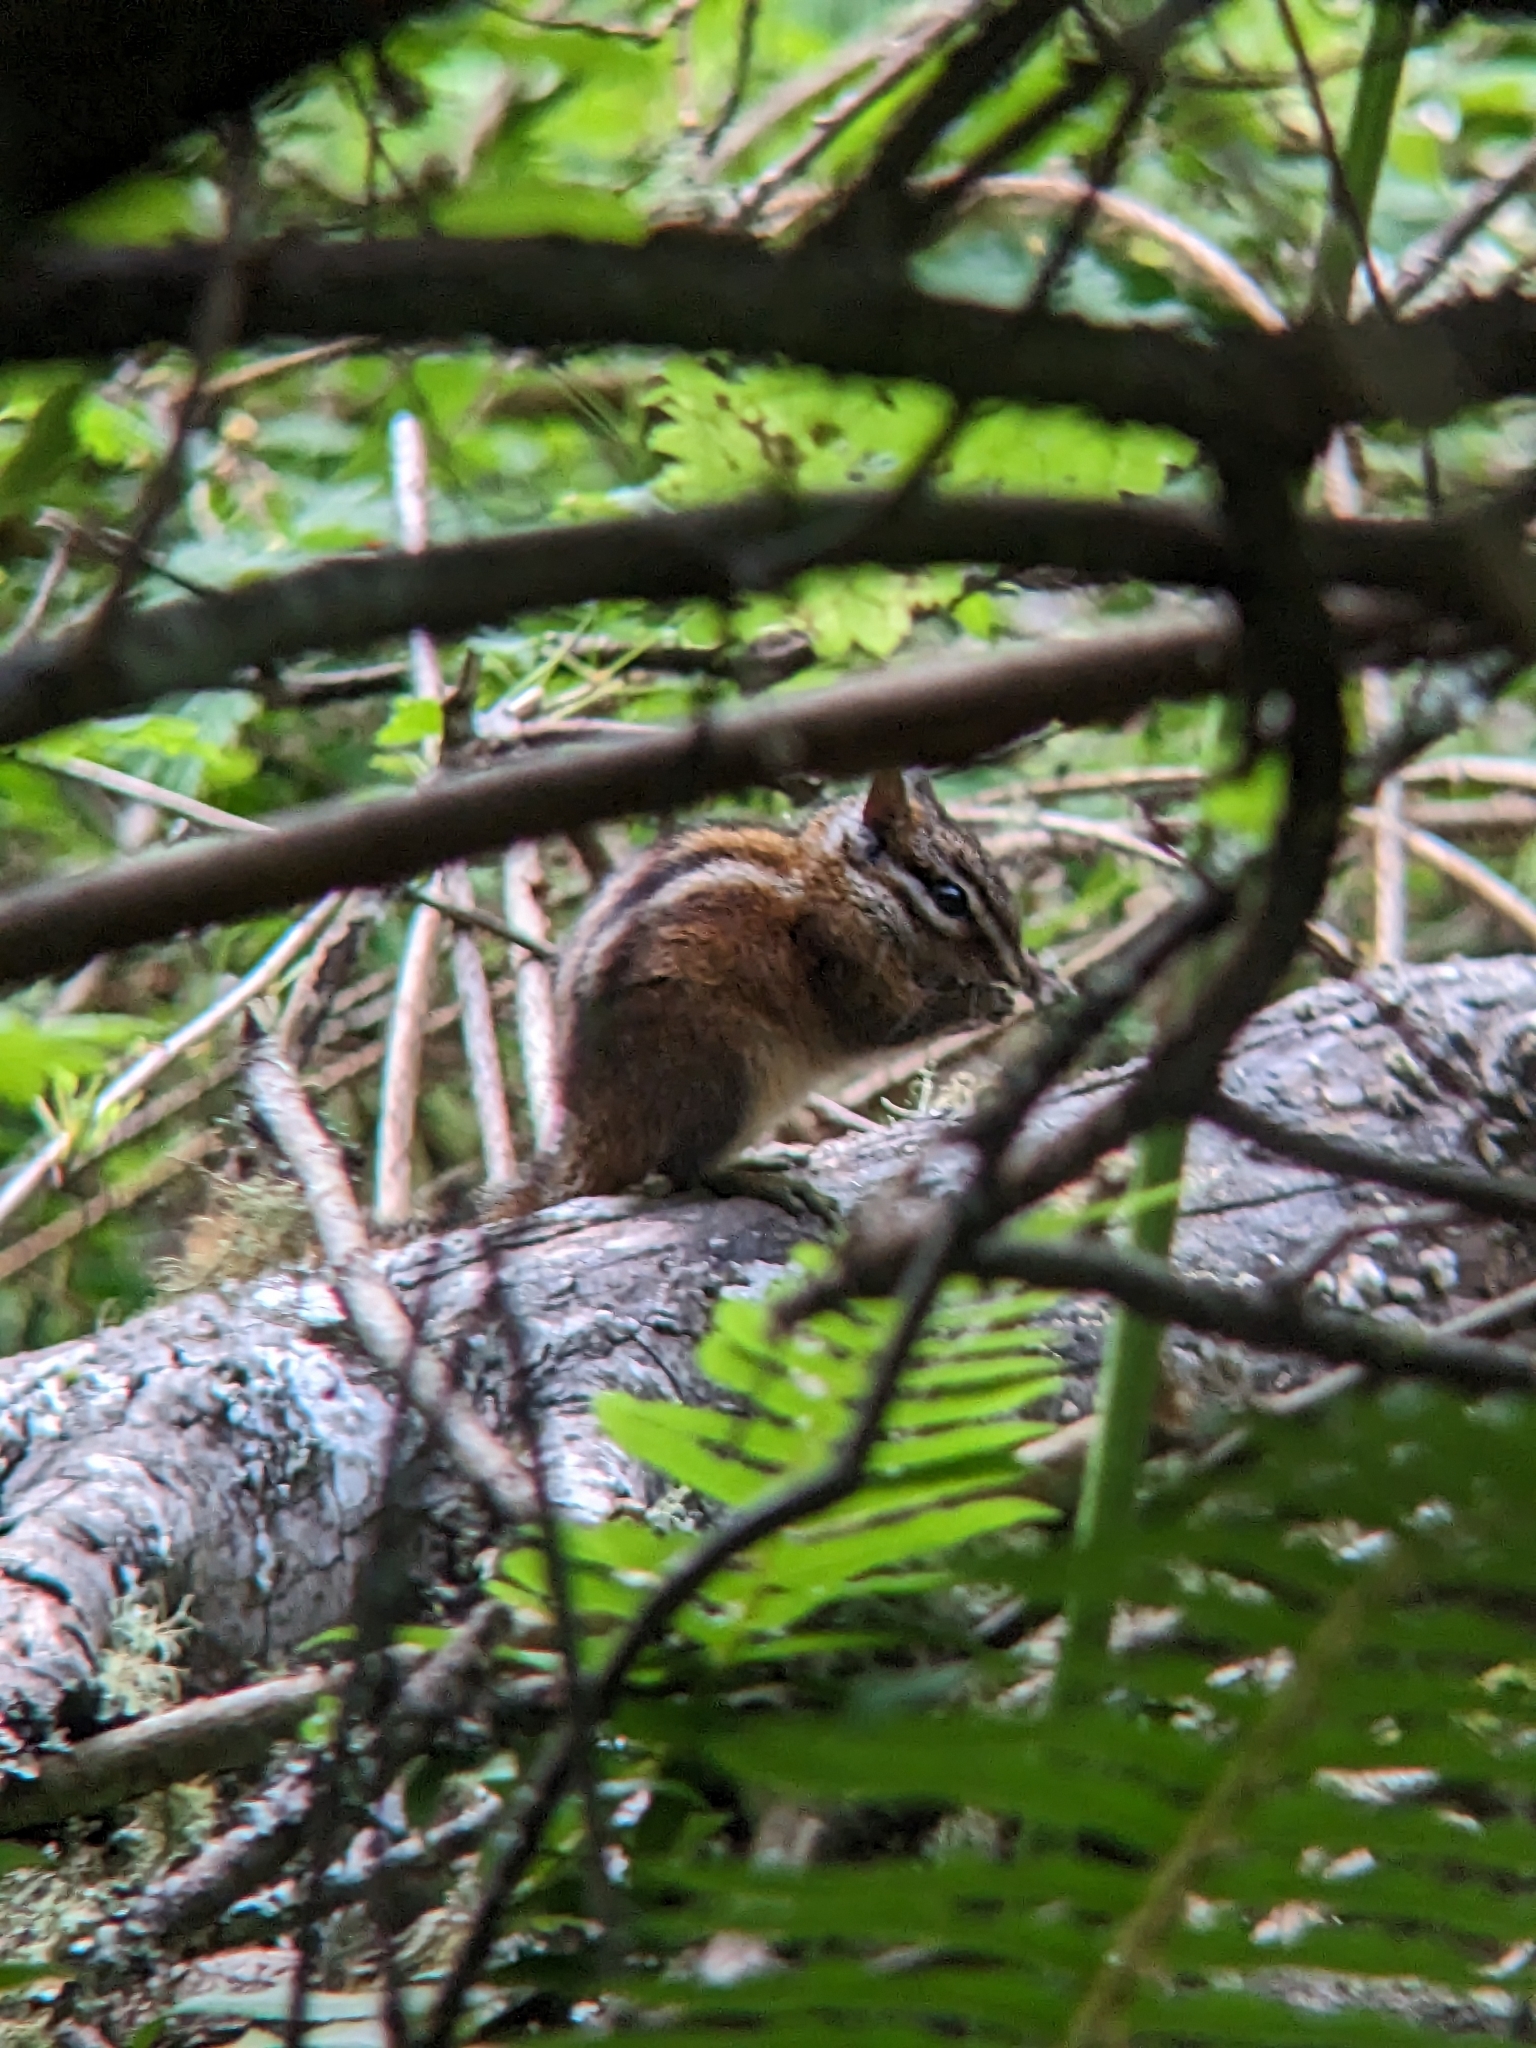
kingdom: Animalia
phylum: Chordata
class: Mammalia
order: Rodentia
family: Sciuridae
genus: Tamias
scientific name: Tamias sonomae
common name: Sonoma chipmunk
